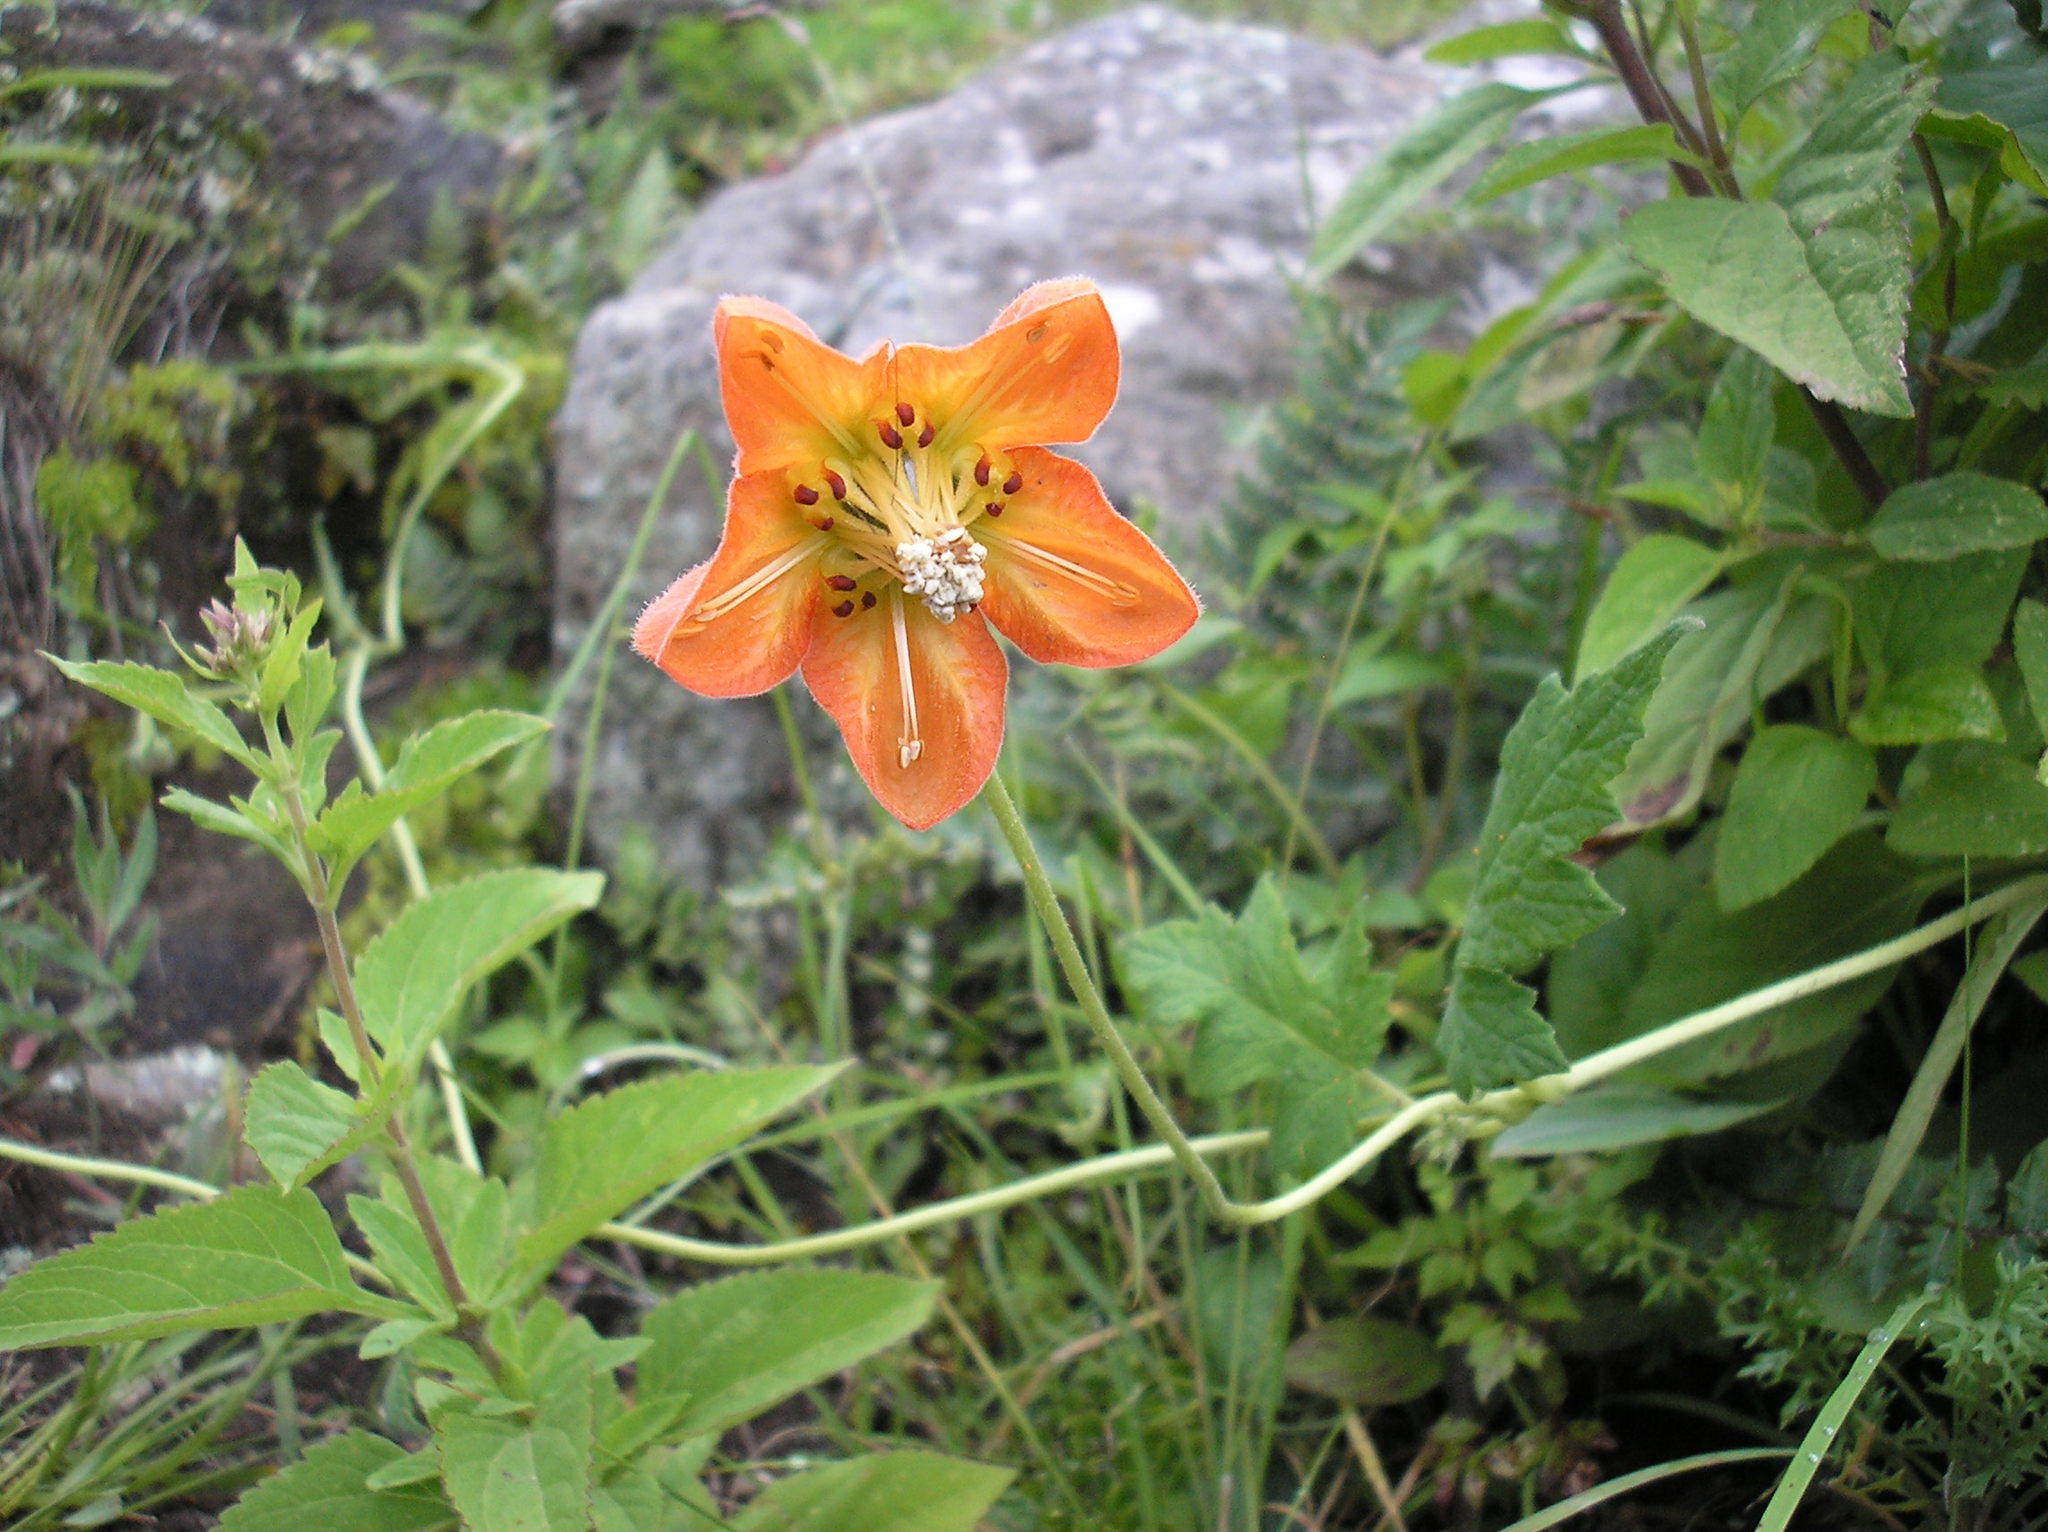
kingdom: Plantae
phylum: Tracheophyta
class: Magnoliopsida
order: Cornales
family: Loasaceae
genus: Caiophora
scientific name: Caiophora lateritia
